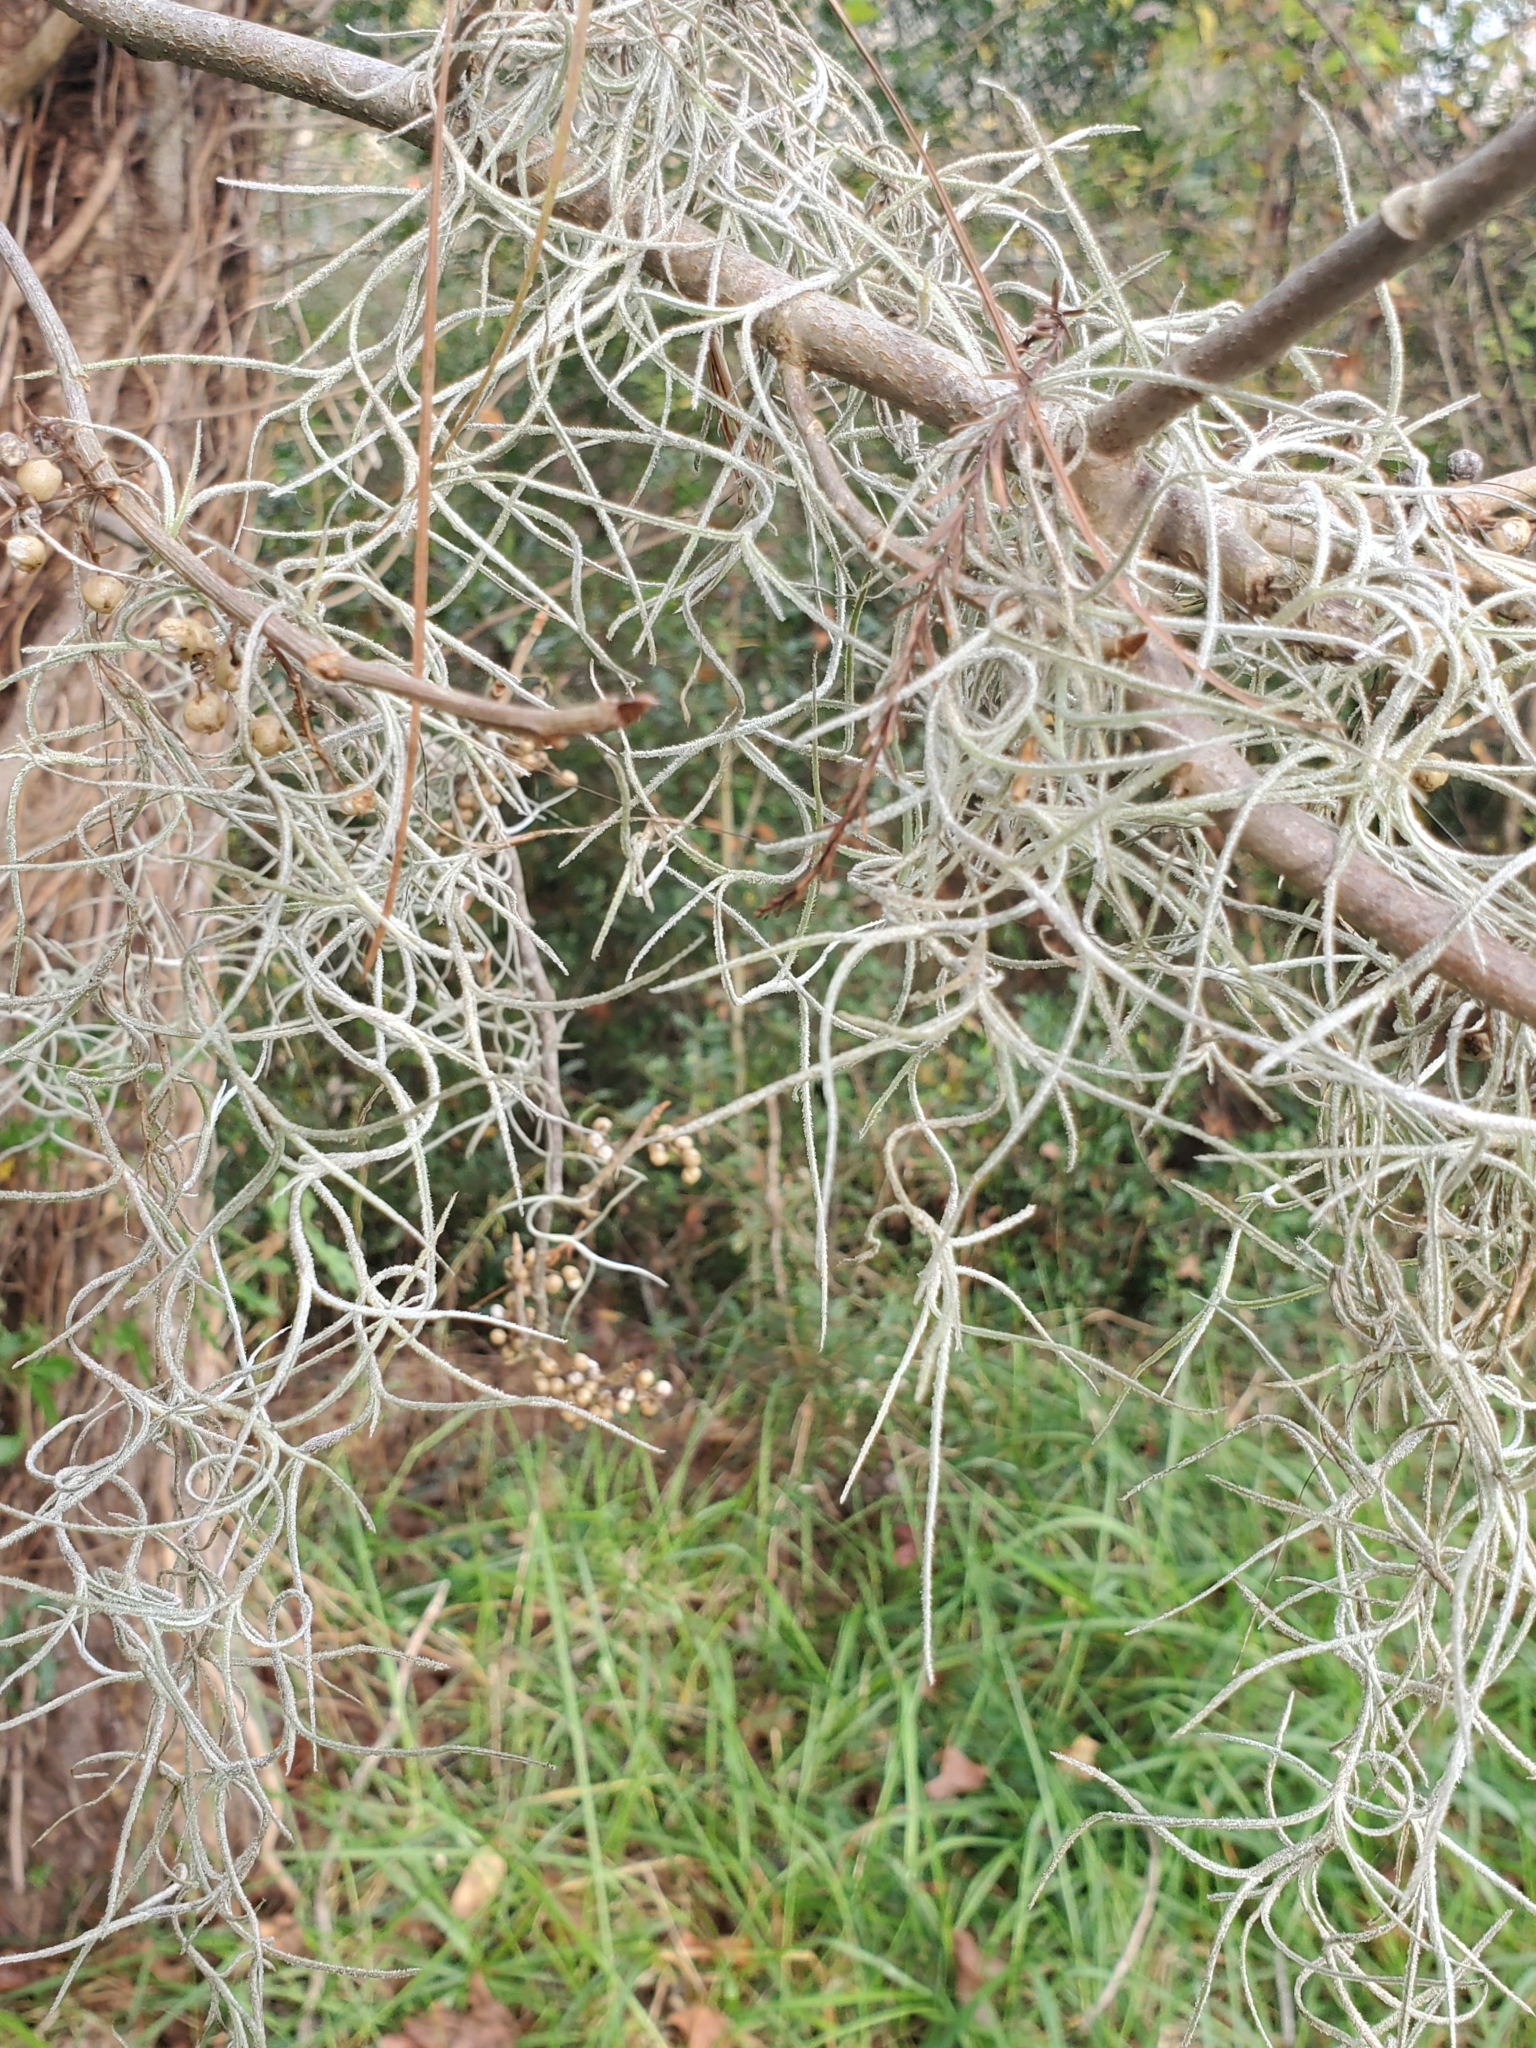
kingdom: Plantae
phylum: Tracheophyta
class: Liliopsida
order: Poales
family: Bromeliaceae
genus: Tillandsia
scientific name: Tillandsia usneoides
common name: Spanish moss
